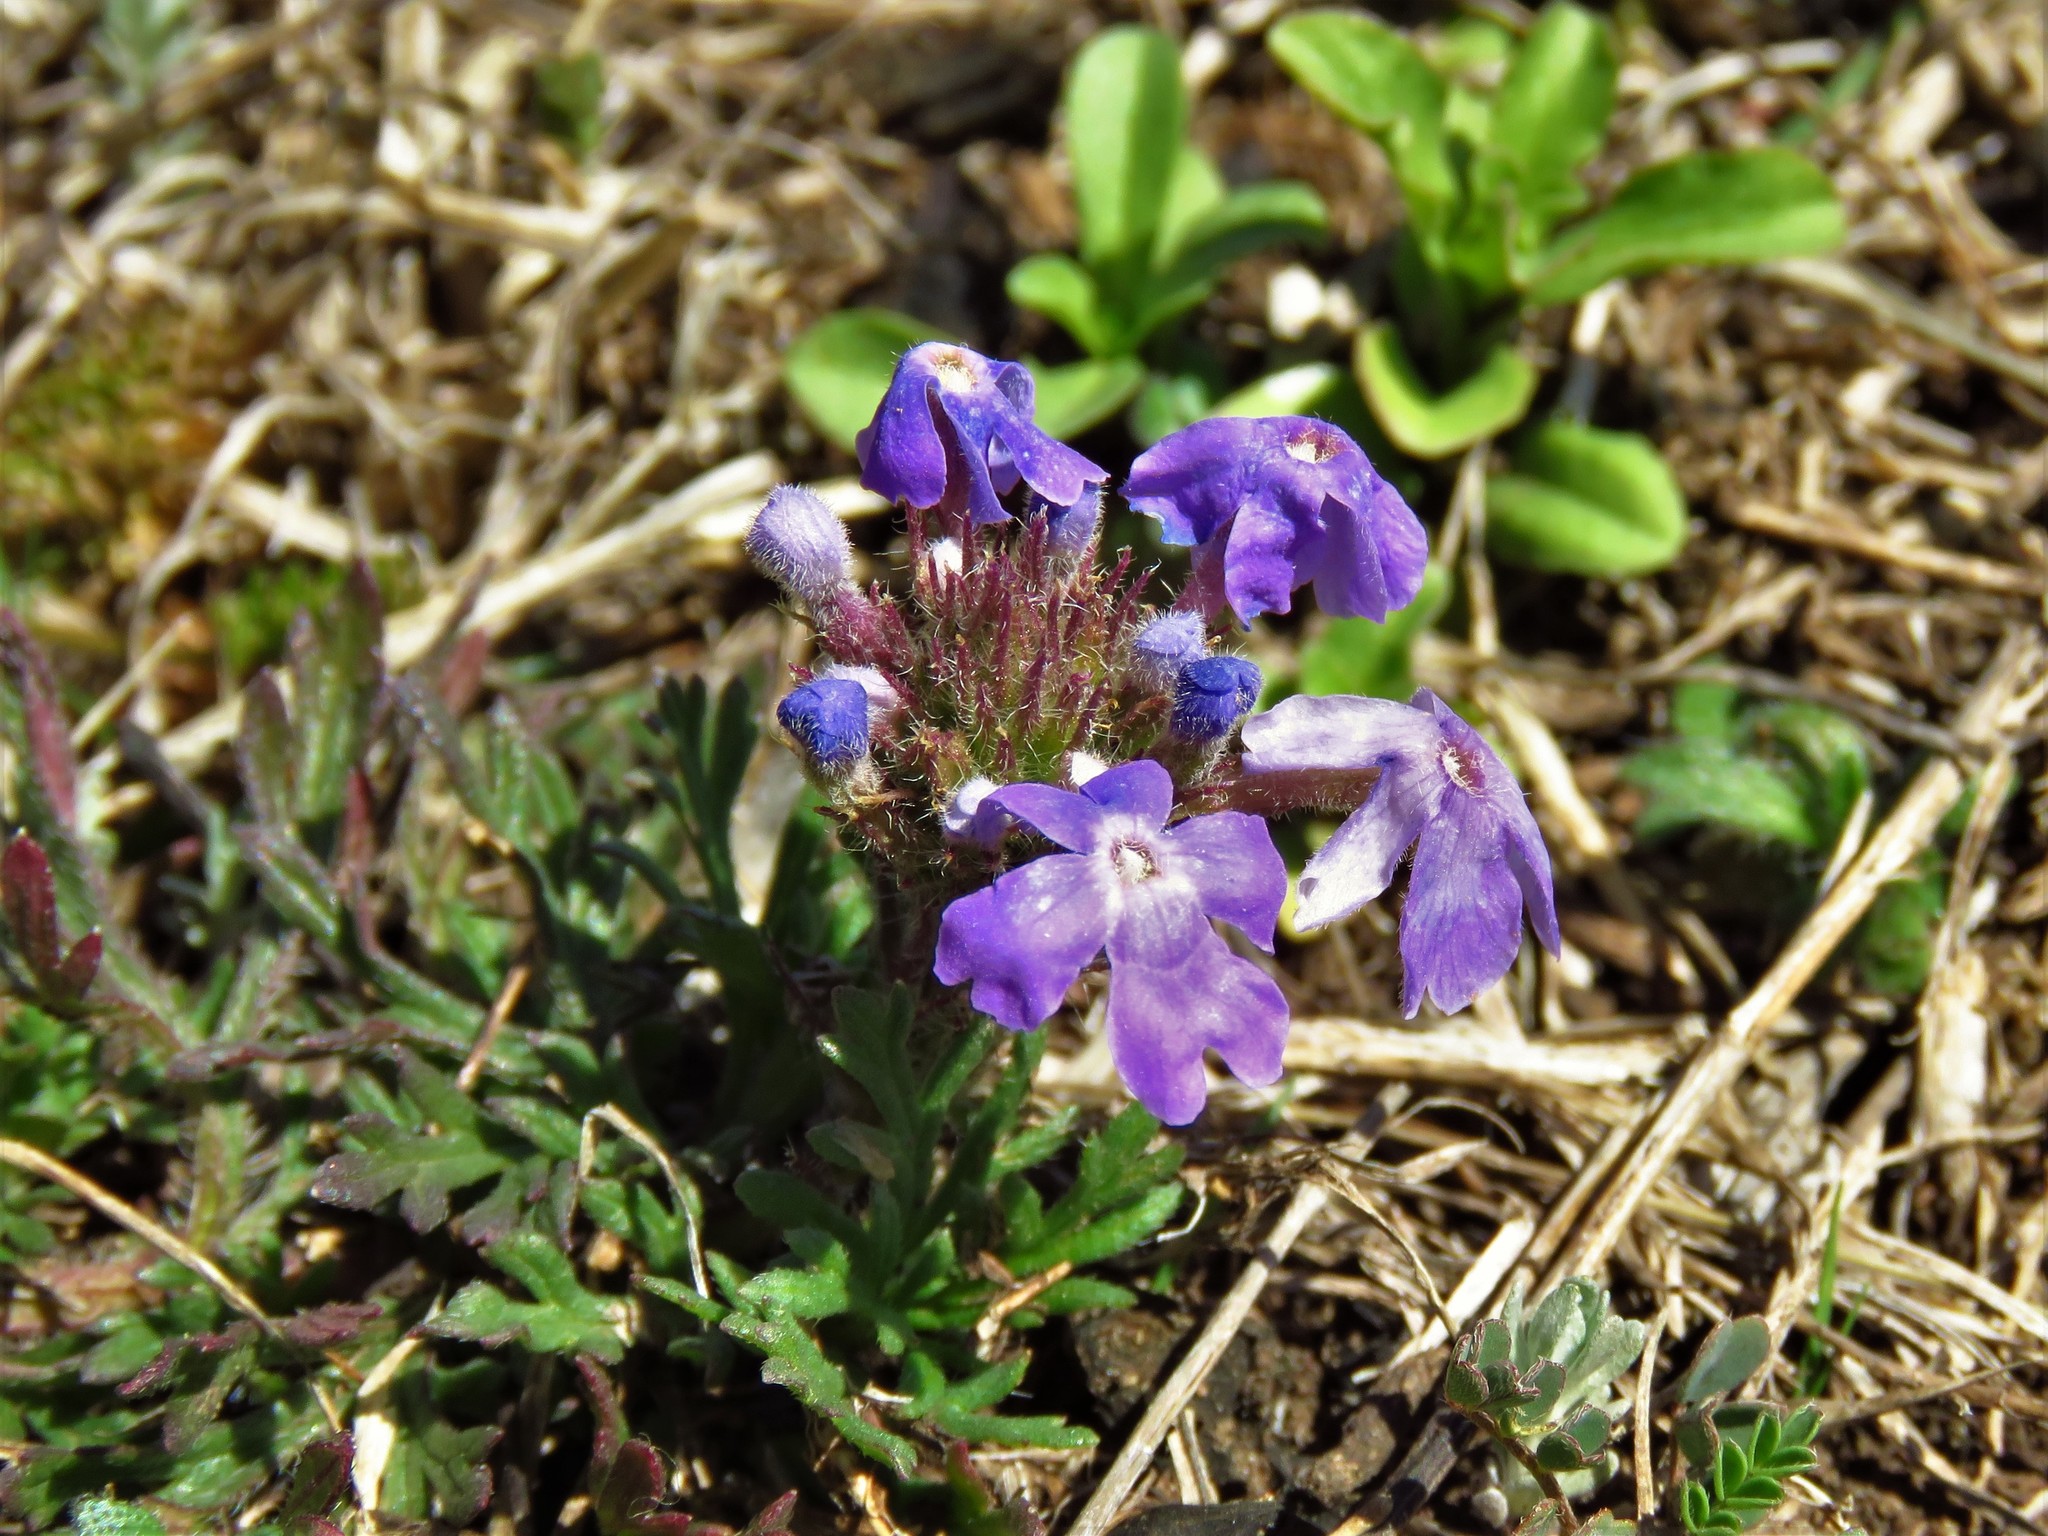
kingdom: Plantae
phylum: Tracheophyta
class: Magnoliopsida
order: Lamiales
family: Verbenaceae
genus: Verbena
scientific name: Verbena bipinnatifida
